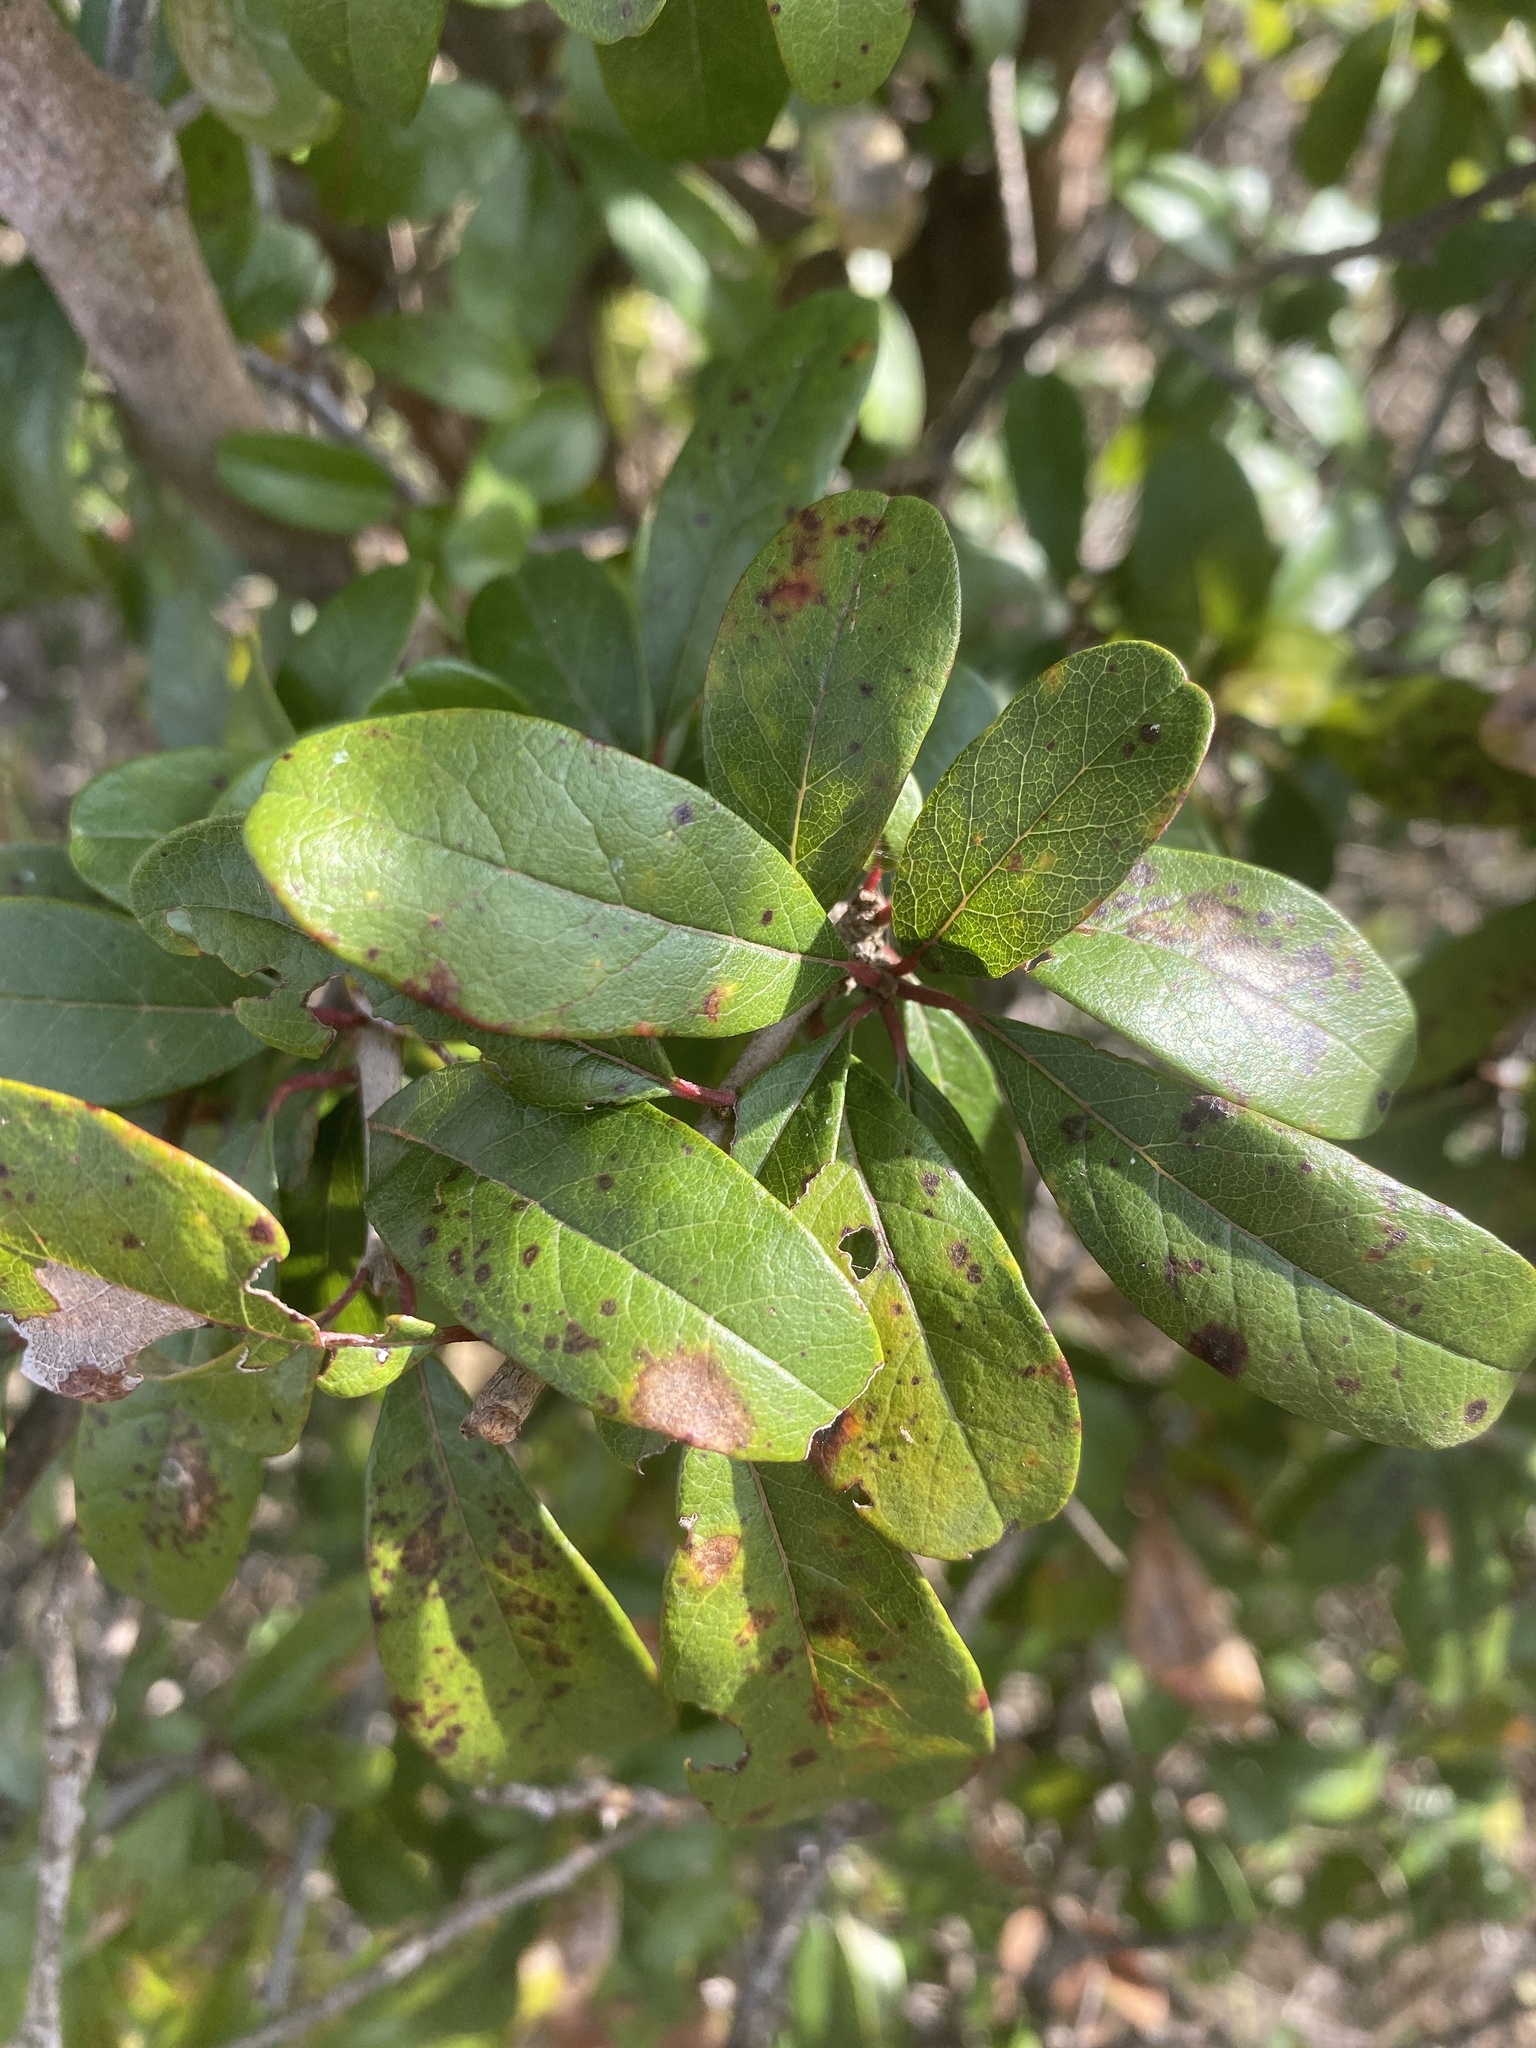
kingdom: Plantae
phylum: Tracheophyta
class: Magnoliopsida
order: Ericales
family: Sapotaceae
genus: Sideroxylon
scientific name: Sideroxylon lanuginosum
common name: Chittamwood
